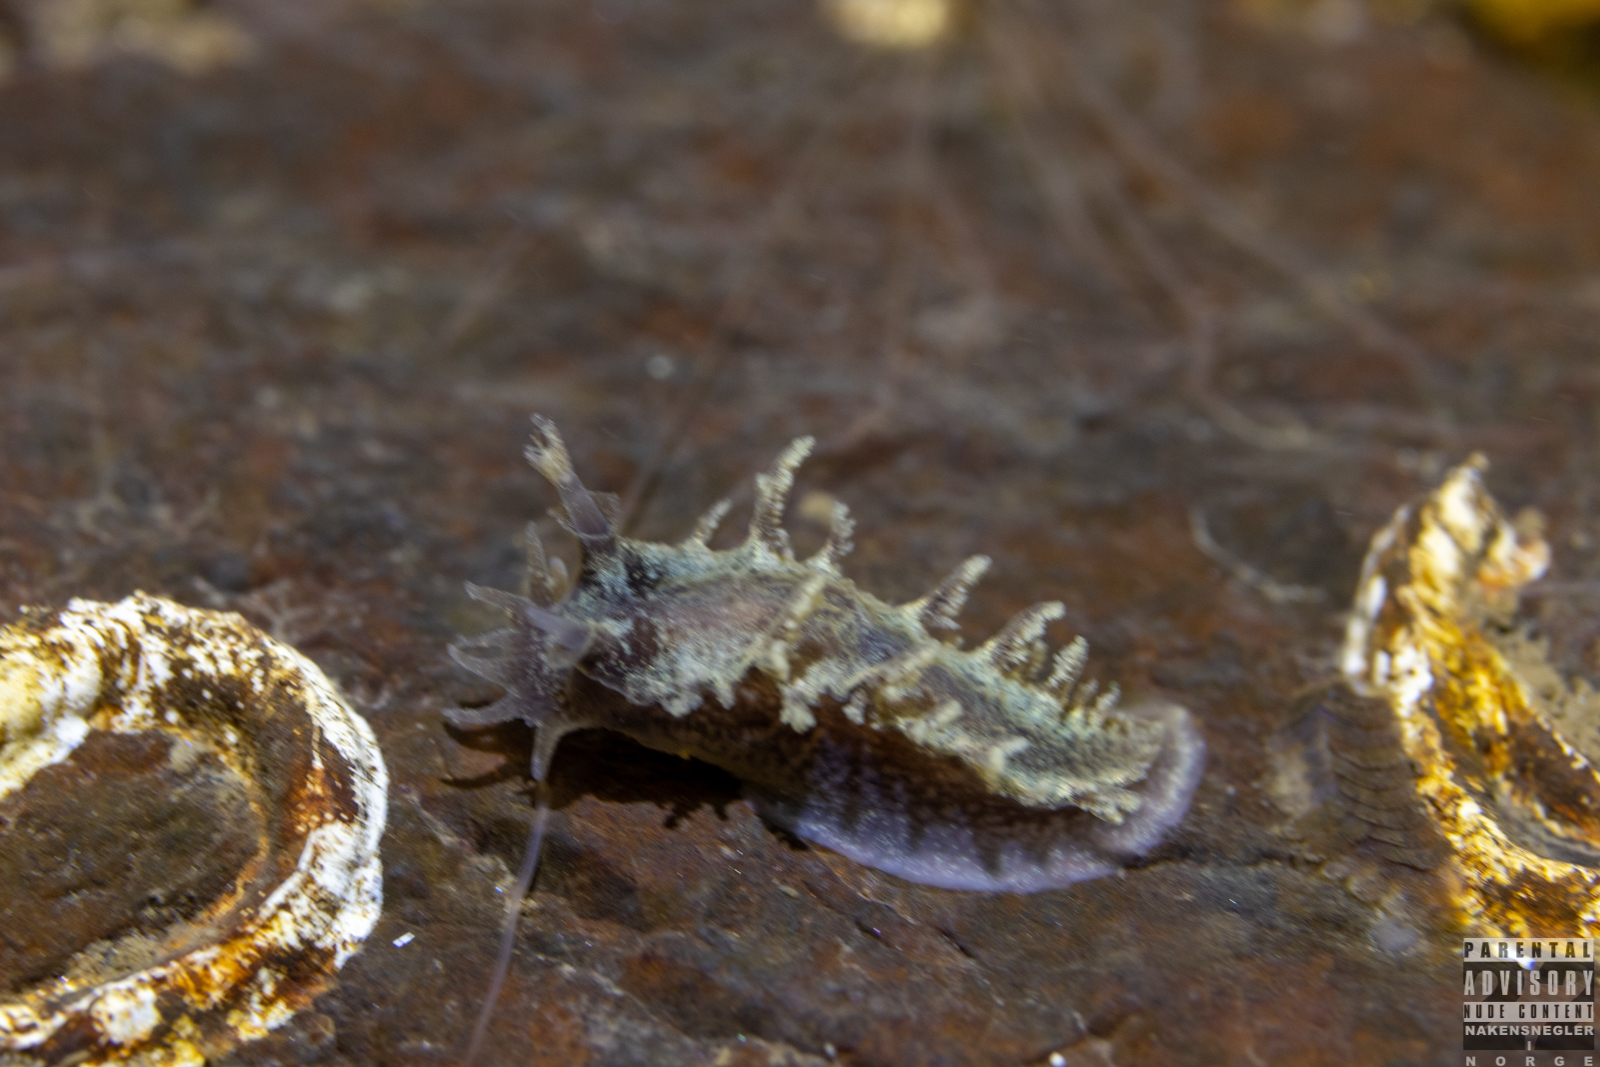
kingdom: Animalia
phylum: Mollusca
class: Gastropoda
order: Nudibranchia
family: Tritoniidae
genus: Duvaucelia
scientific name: Duvaucelia plebeia
